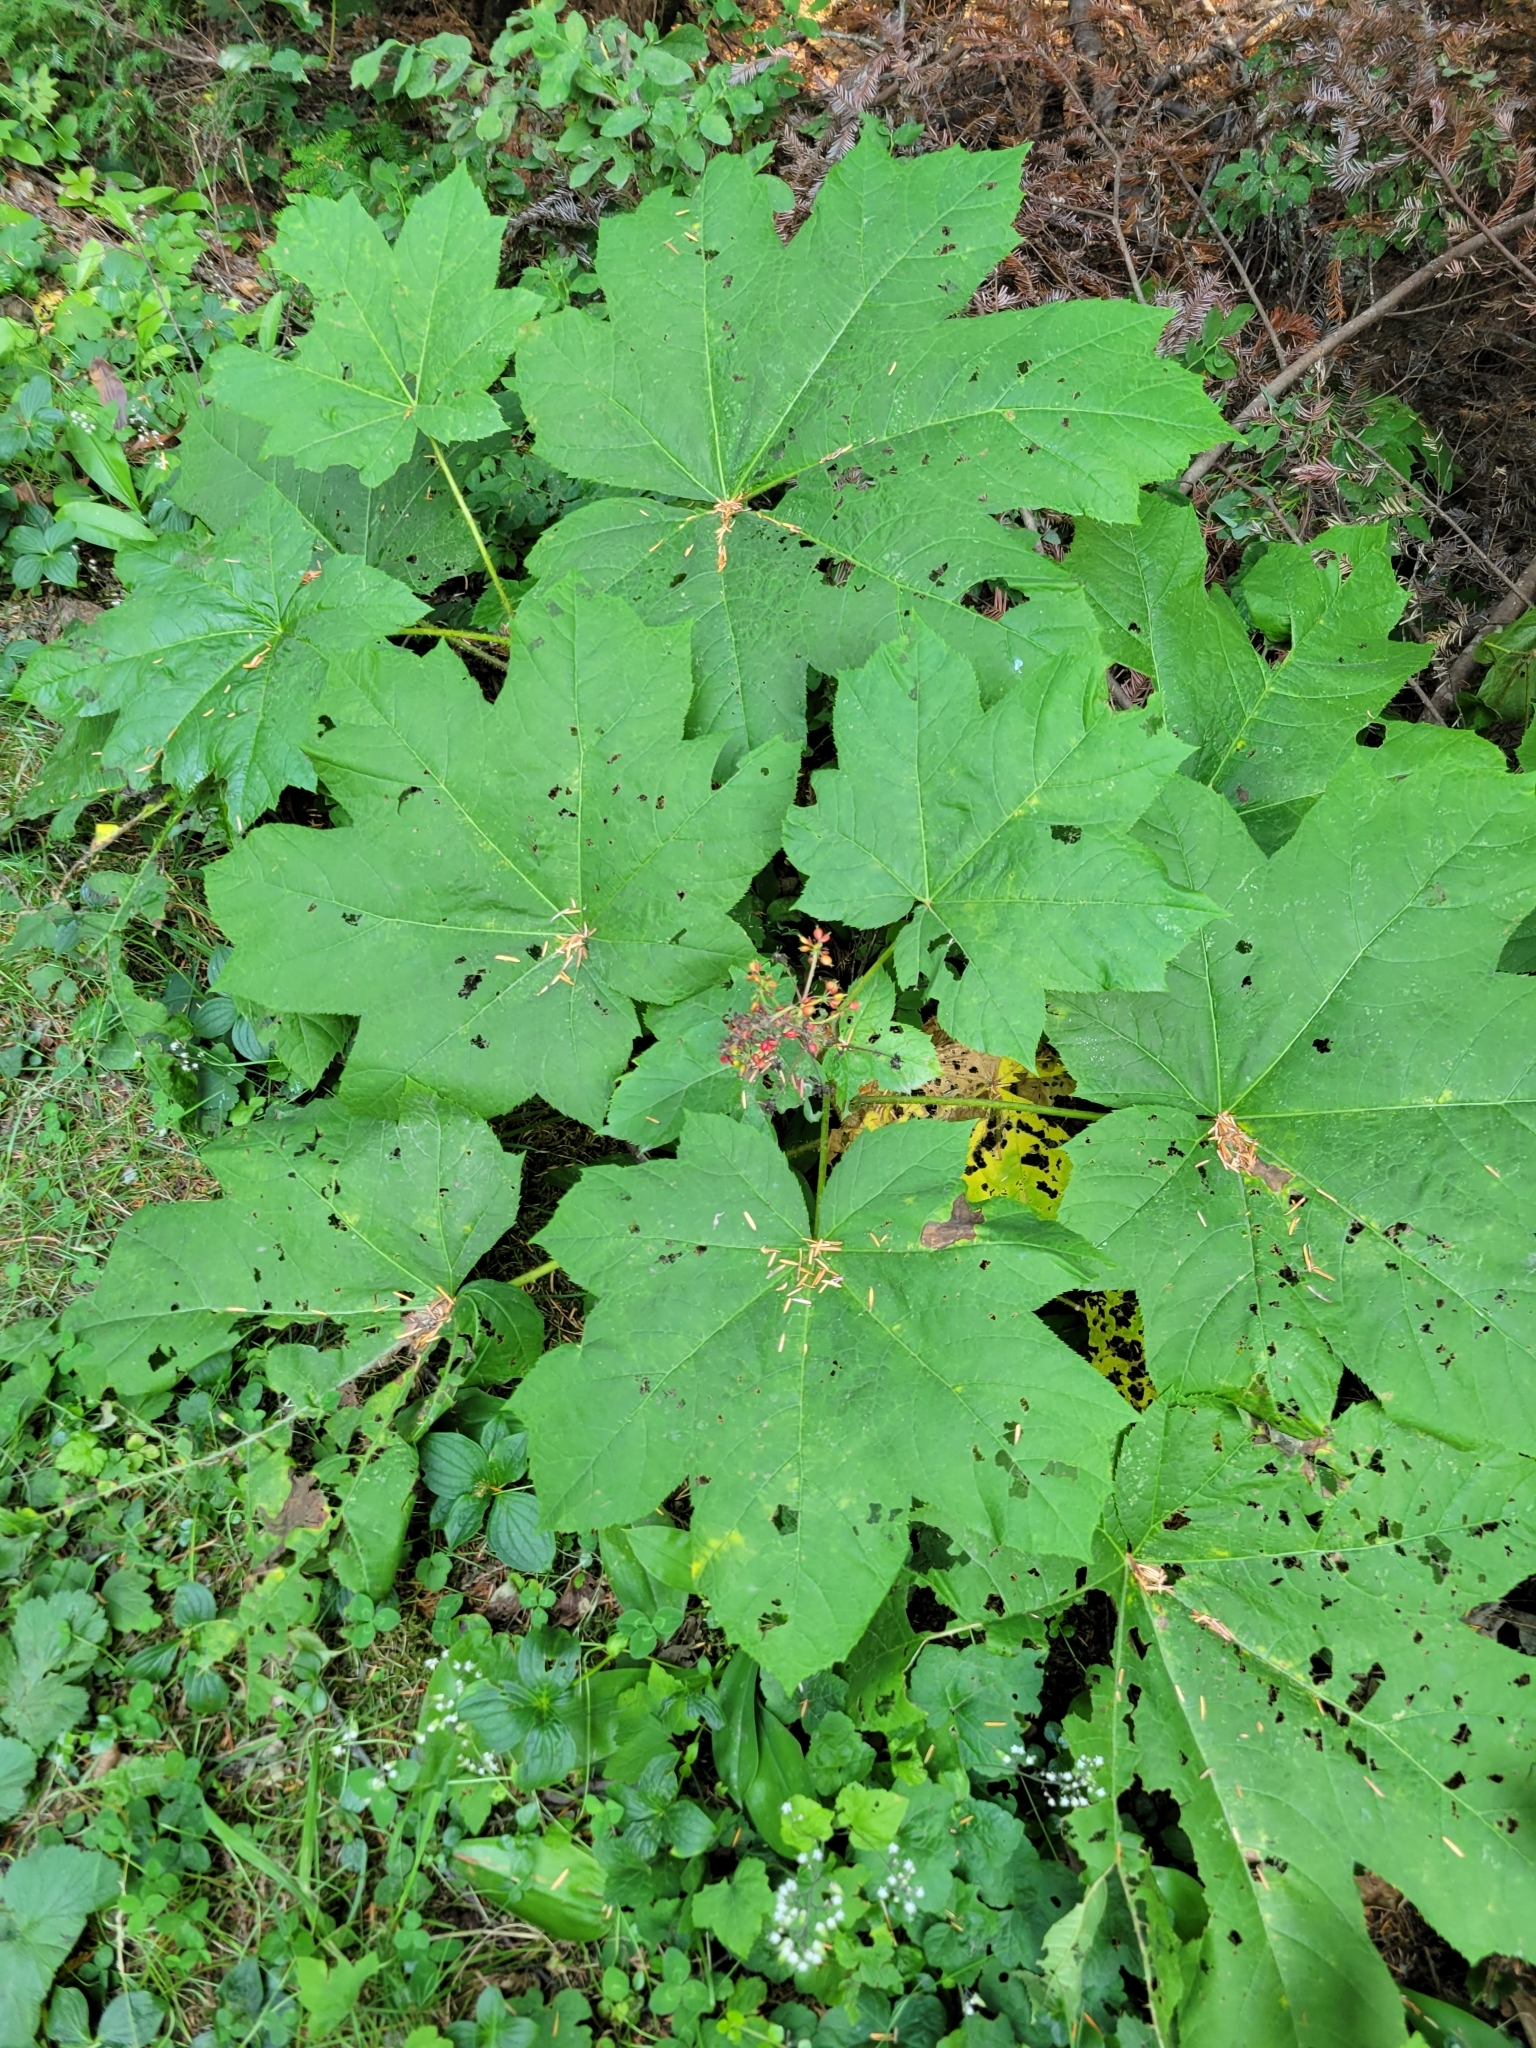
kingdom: Plantae
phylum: Tracheophyta
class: Magnoliopsida
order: Apiales
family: Araliaceae
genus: Oplopanax
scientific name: Oplopanax horridus
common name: Devil's walking-stick
